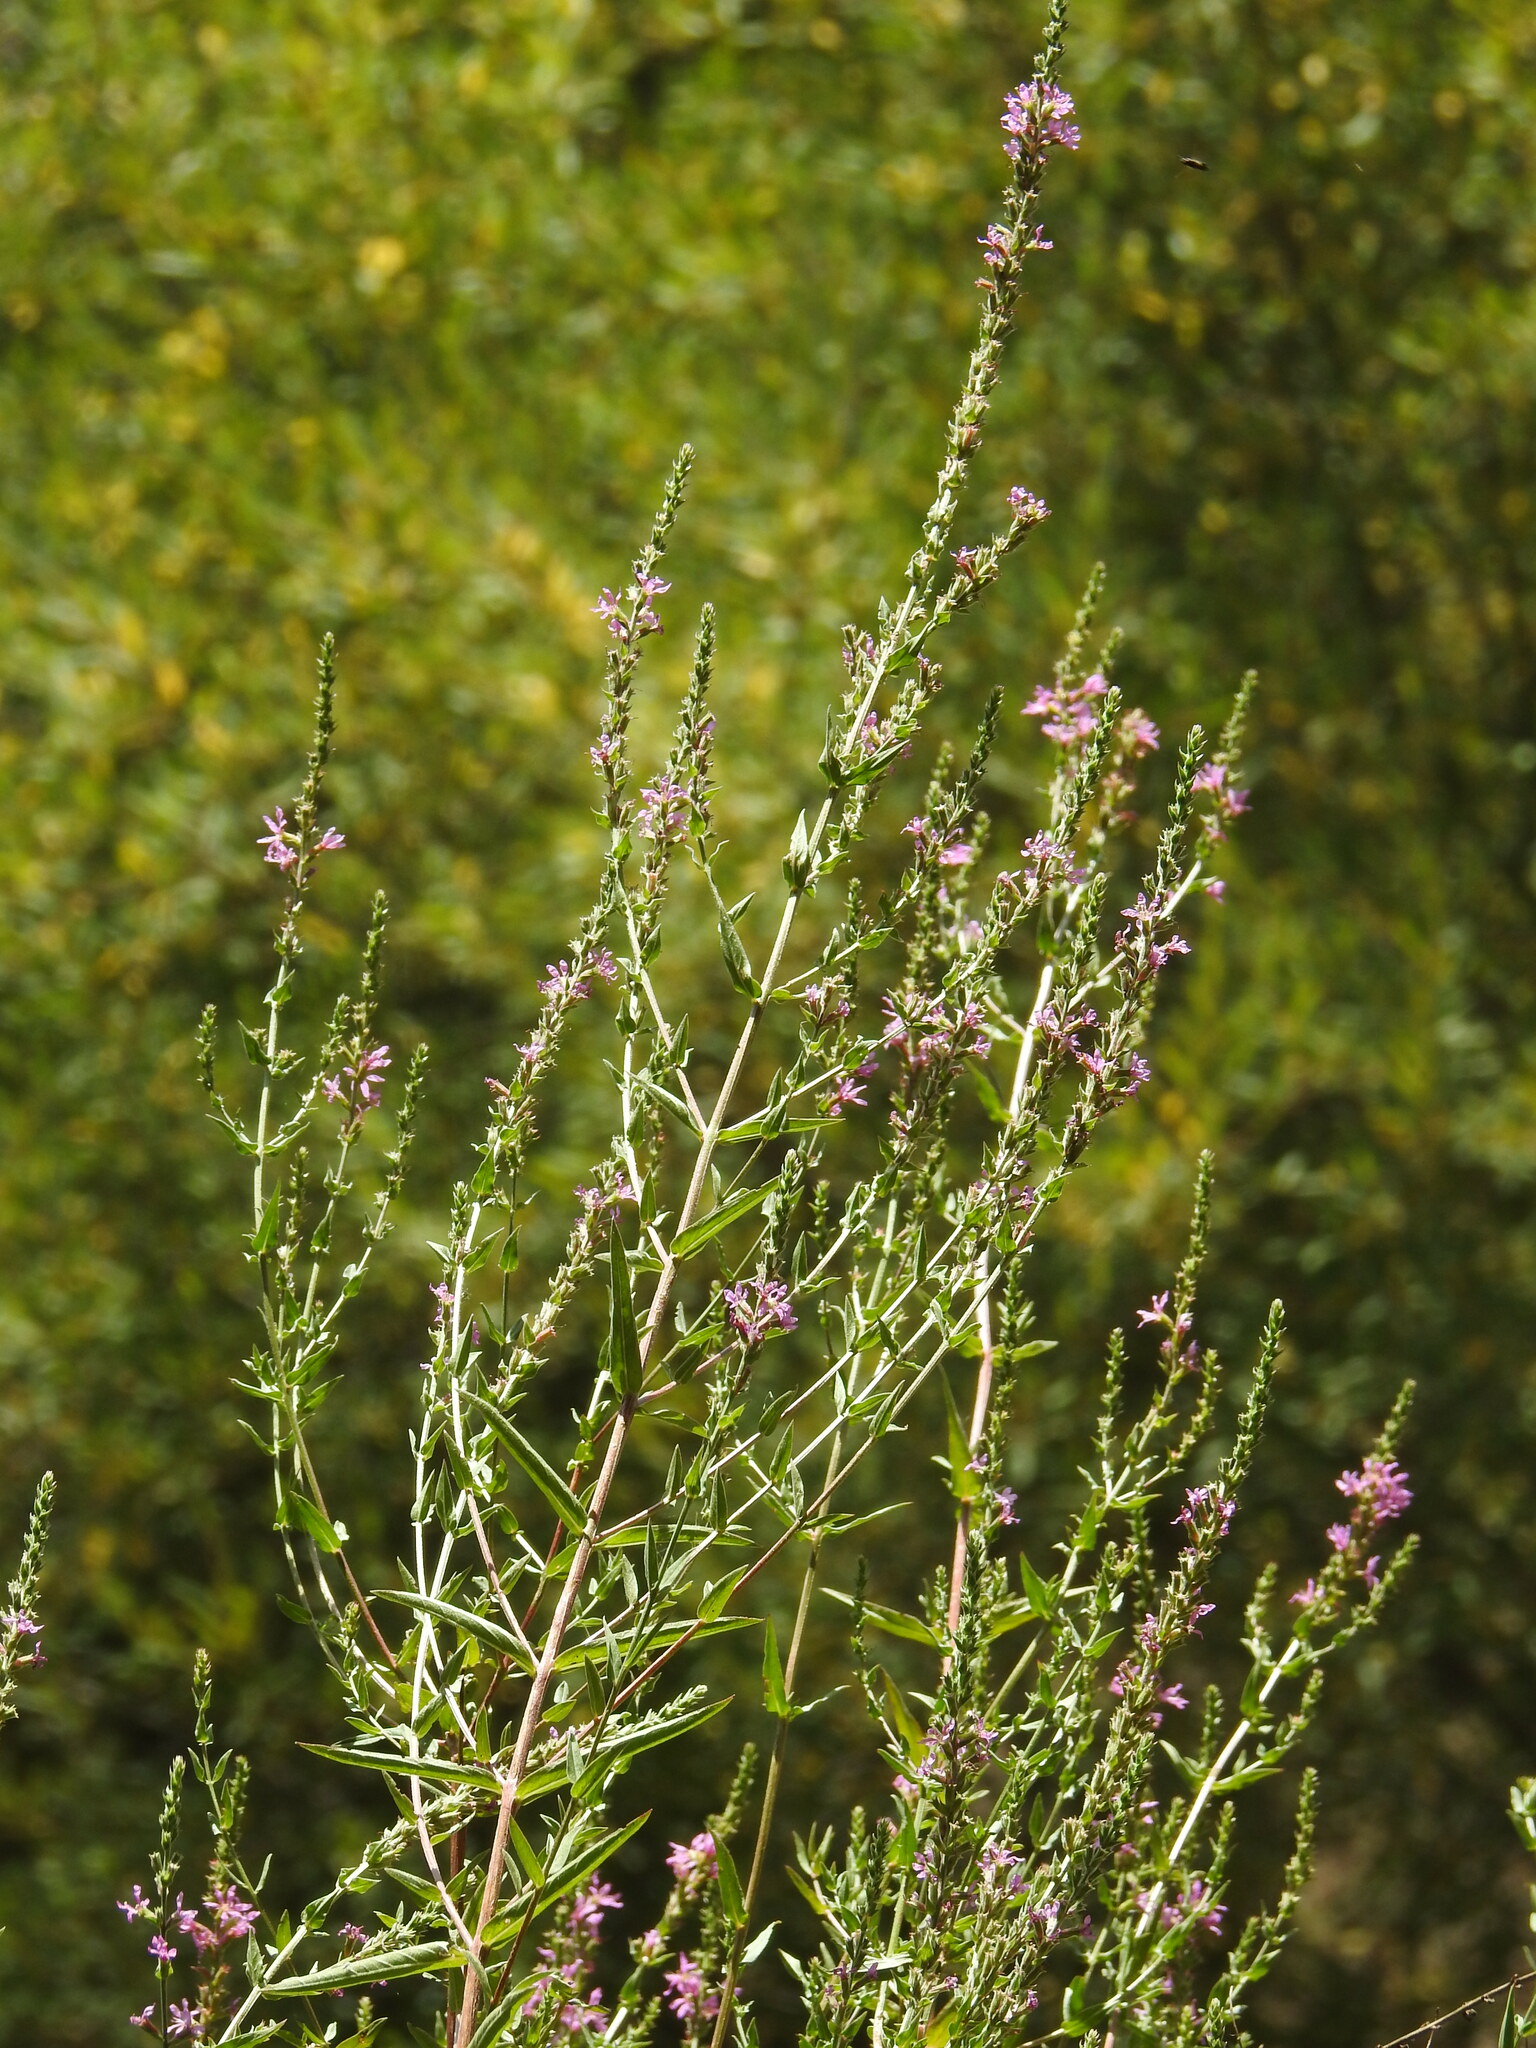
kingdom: Plantae
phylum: Tracheophyta
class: Magnoliopsida
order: Myrtales
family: Lythraceae
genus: Lythrum
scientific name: Lythrum salicaria
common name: Purple loosestrife
